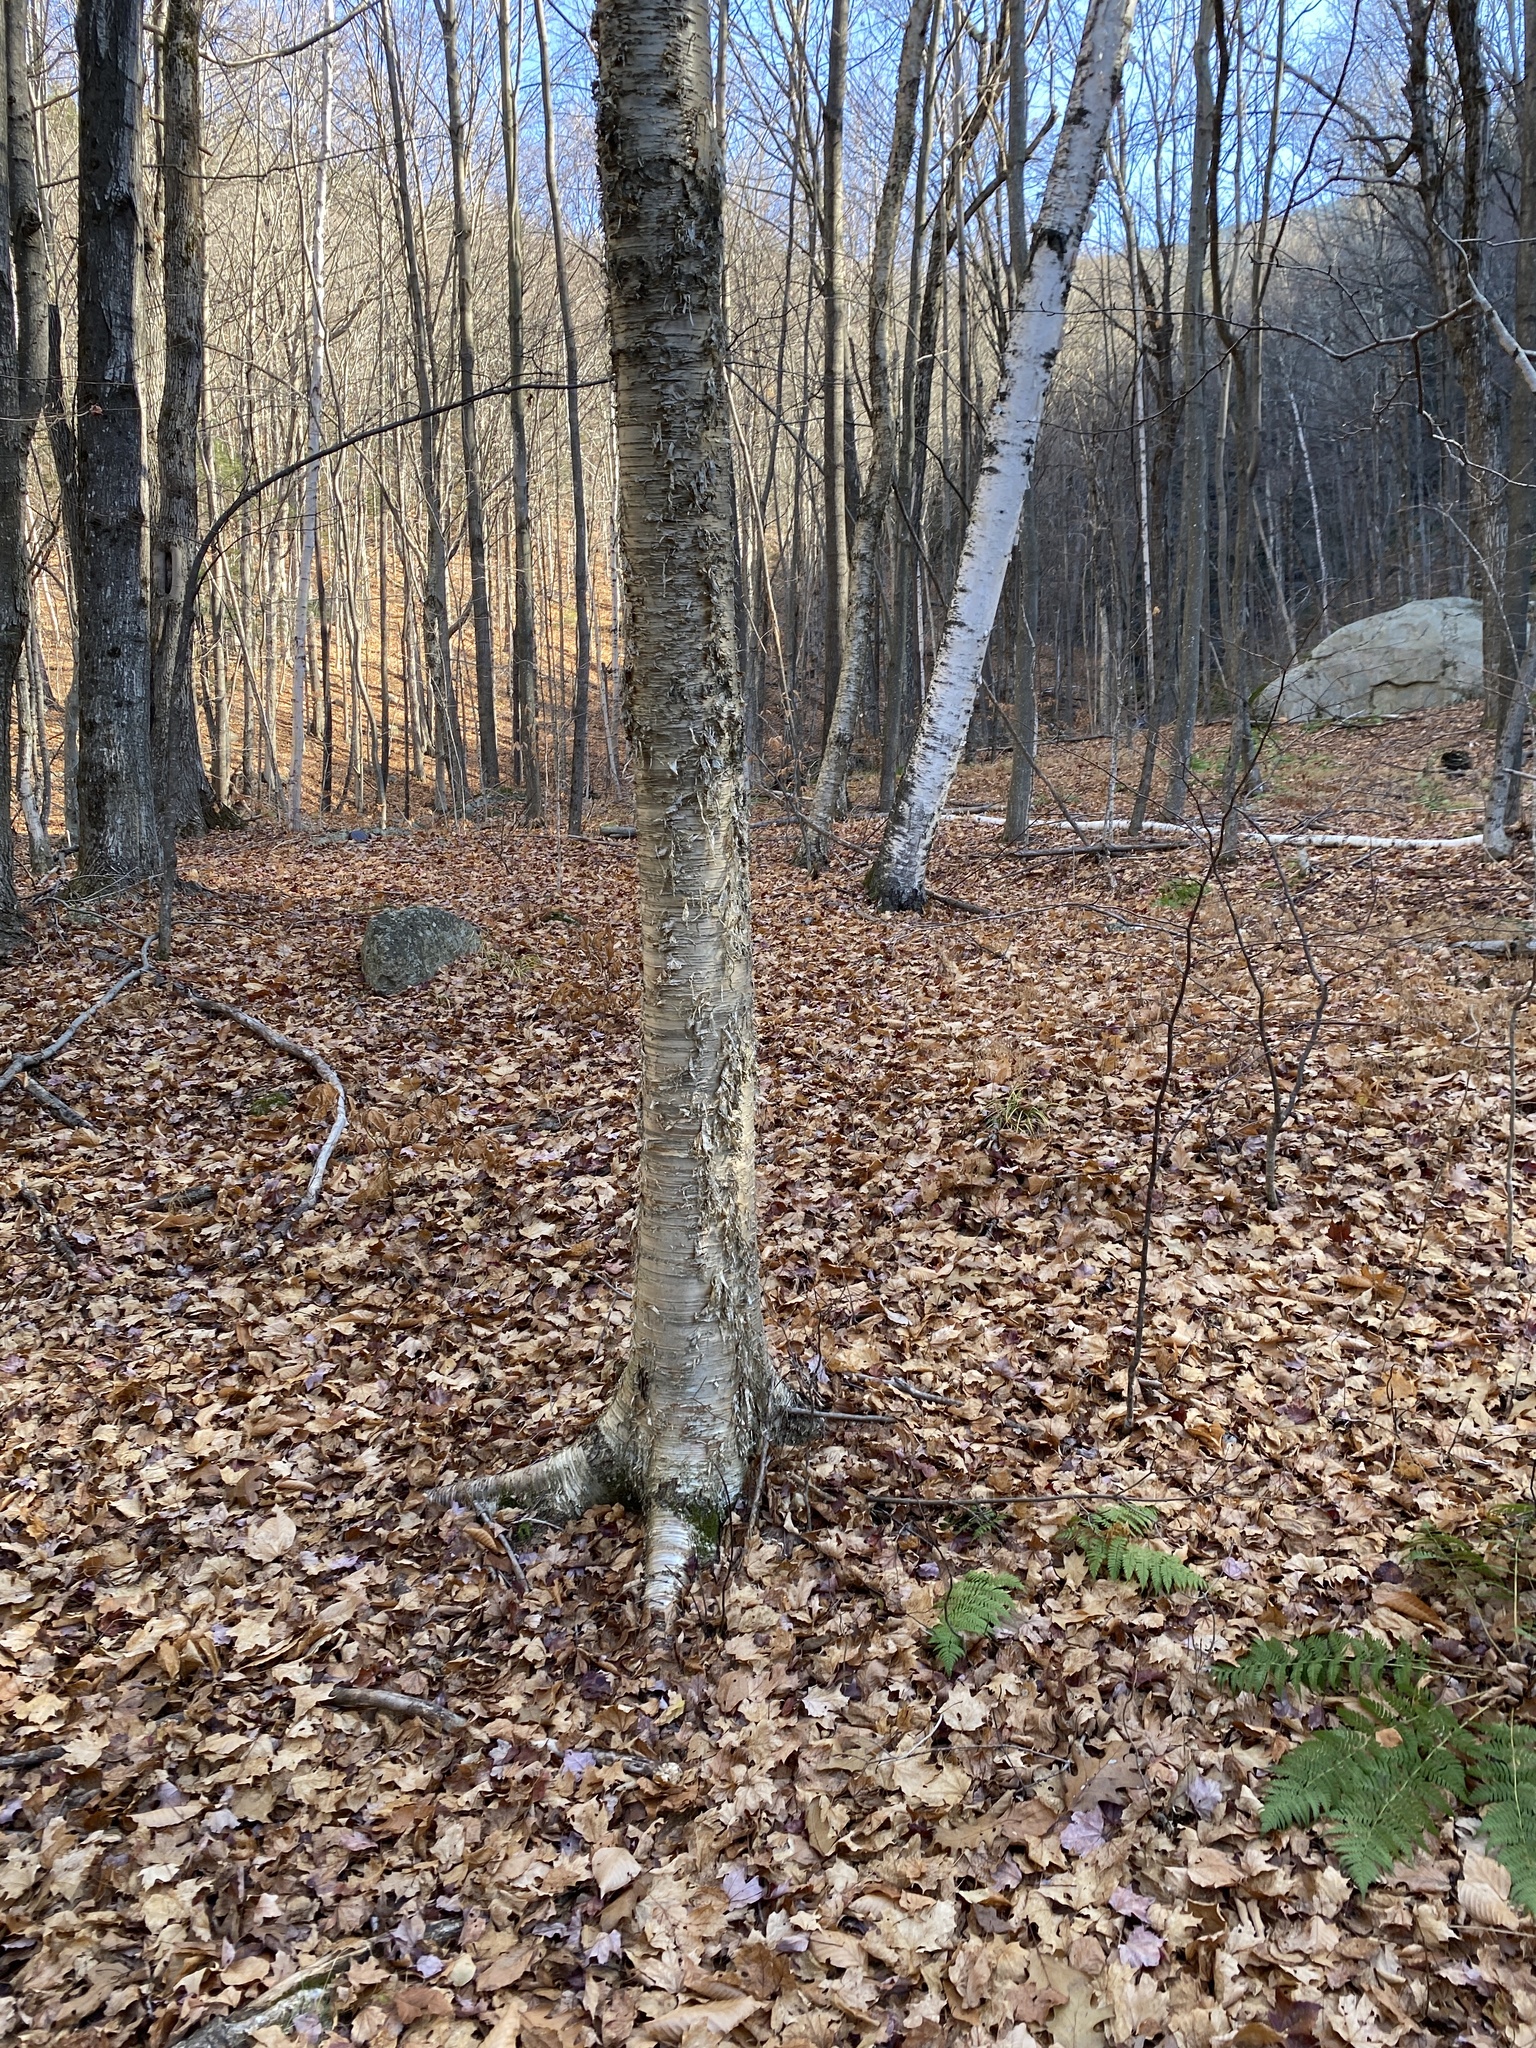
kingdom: Plantae
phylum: Tracheophyta
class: Magnoliopsida
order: Fagales
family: Betulaceae
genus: Betula
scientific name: Betula papyrifera
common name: Paper birch
